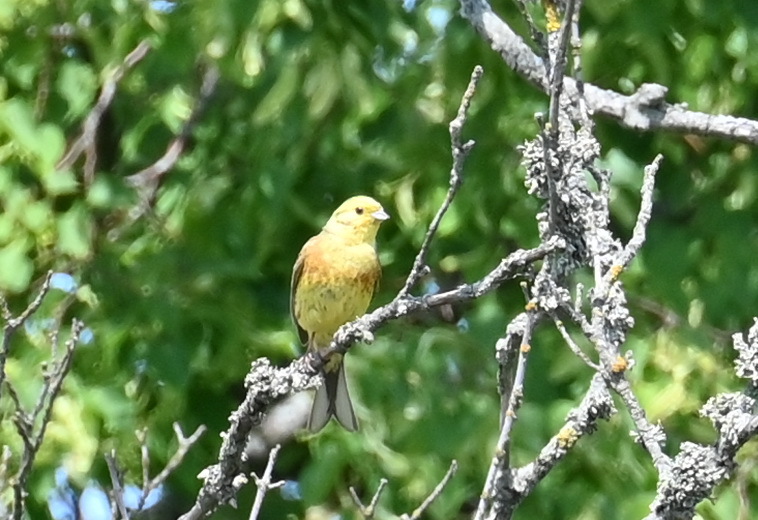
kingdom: Animalia
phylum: Chordata
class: Aves
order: Passeriformes
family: Emberizidae
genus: Emberiza
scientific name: Emberiza citrinella
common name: Yellowhammer
